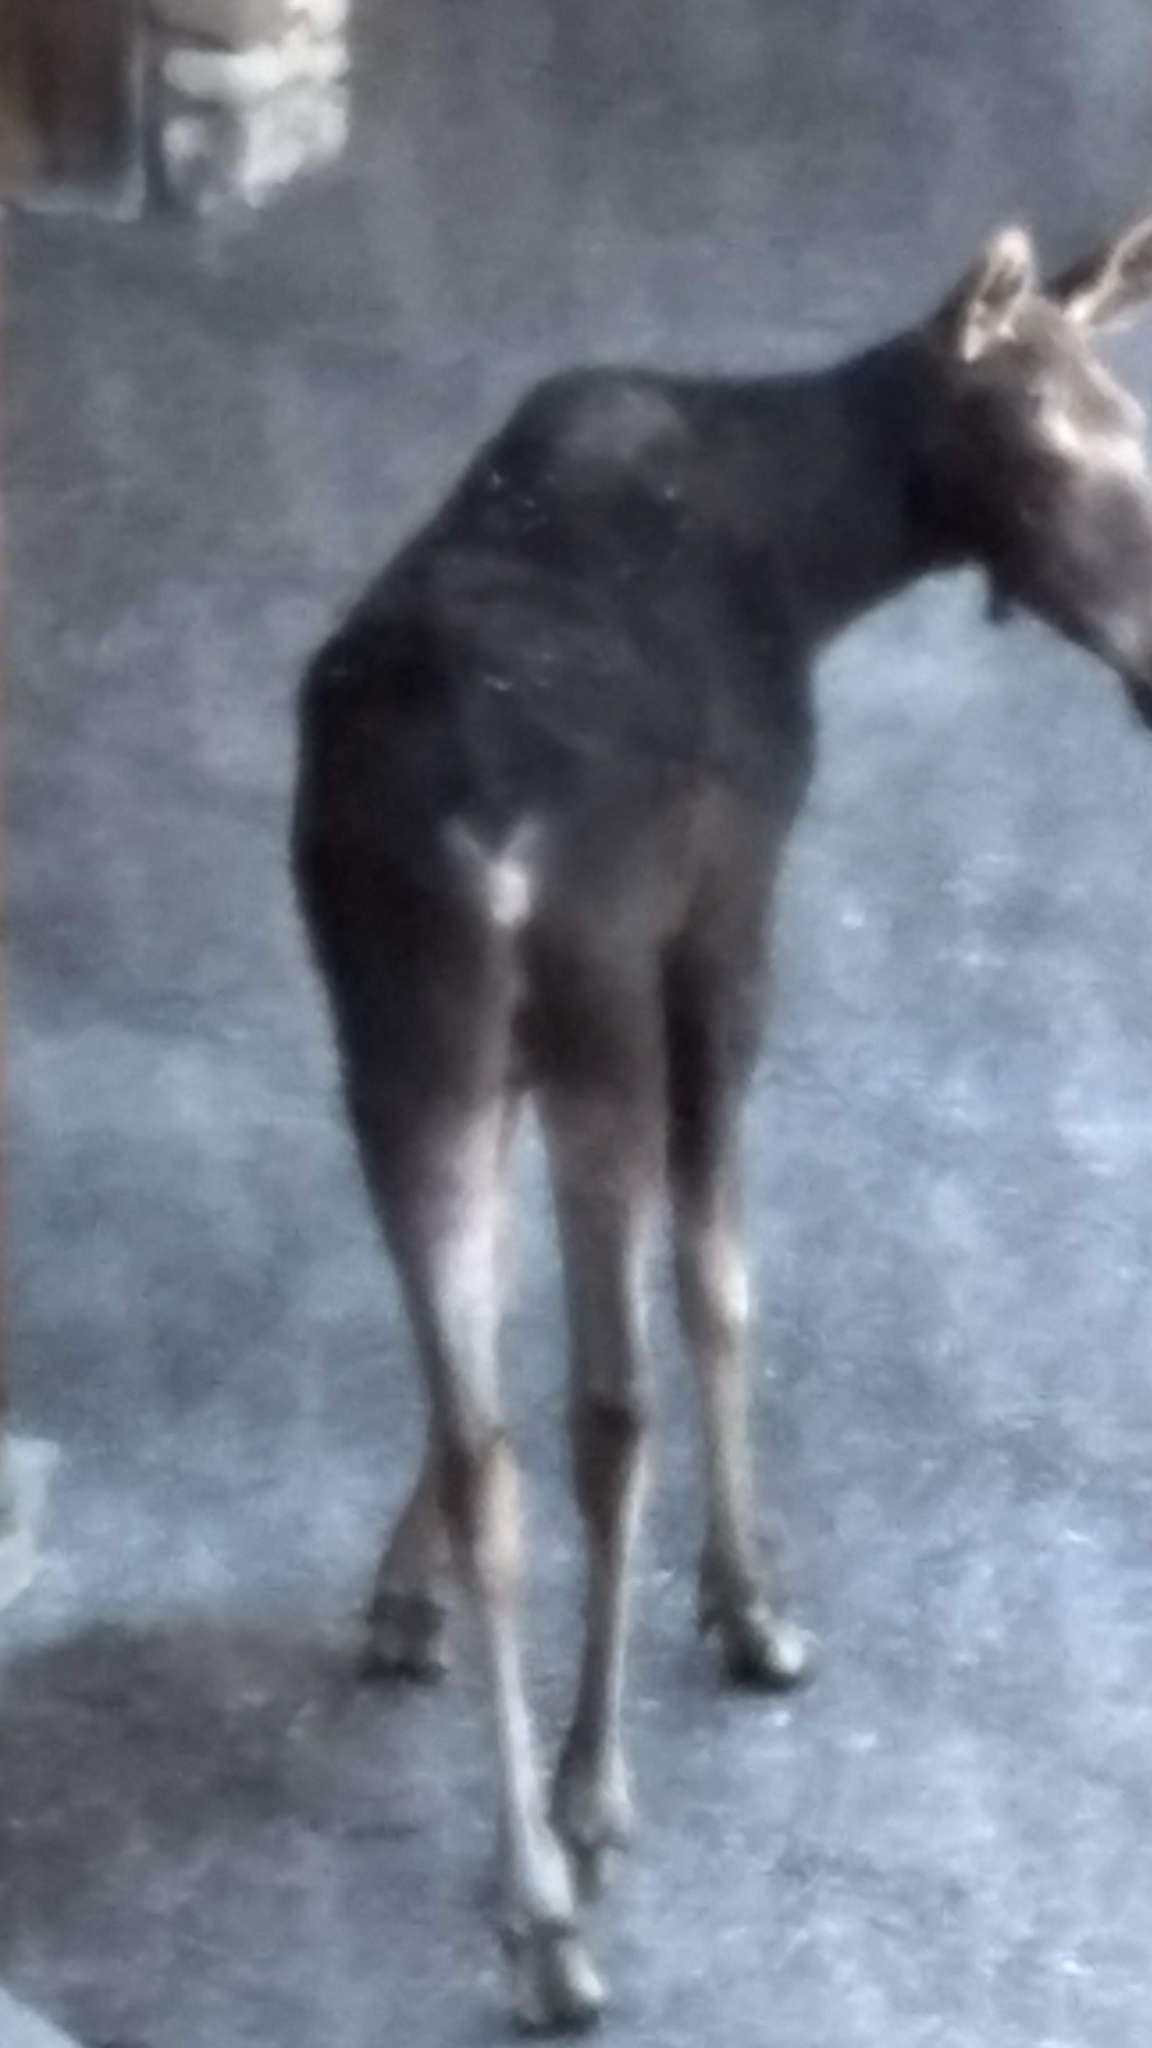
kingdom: Animalia
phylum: Chordata
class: Mammalia
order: Artiodactyla
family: Cervidae
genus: Alces
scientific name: Alces alces
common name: Moose
